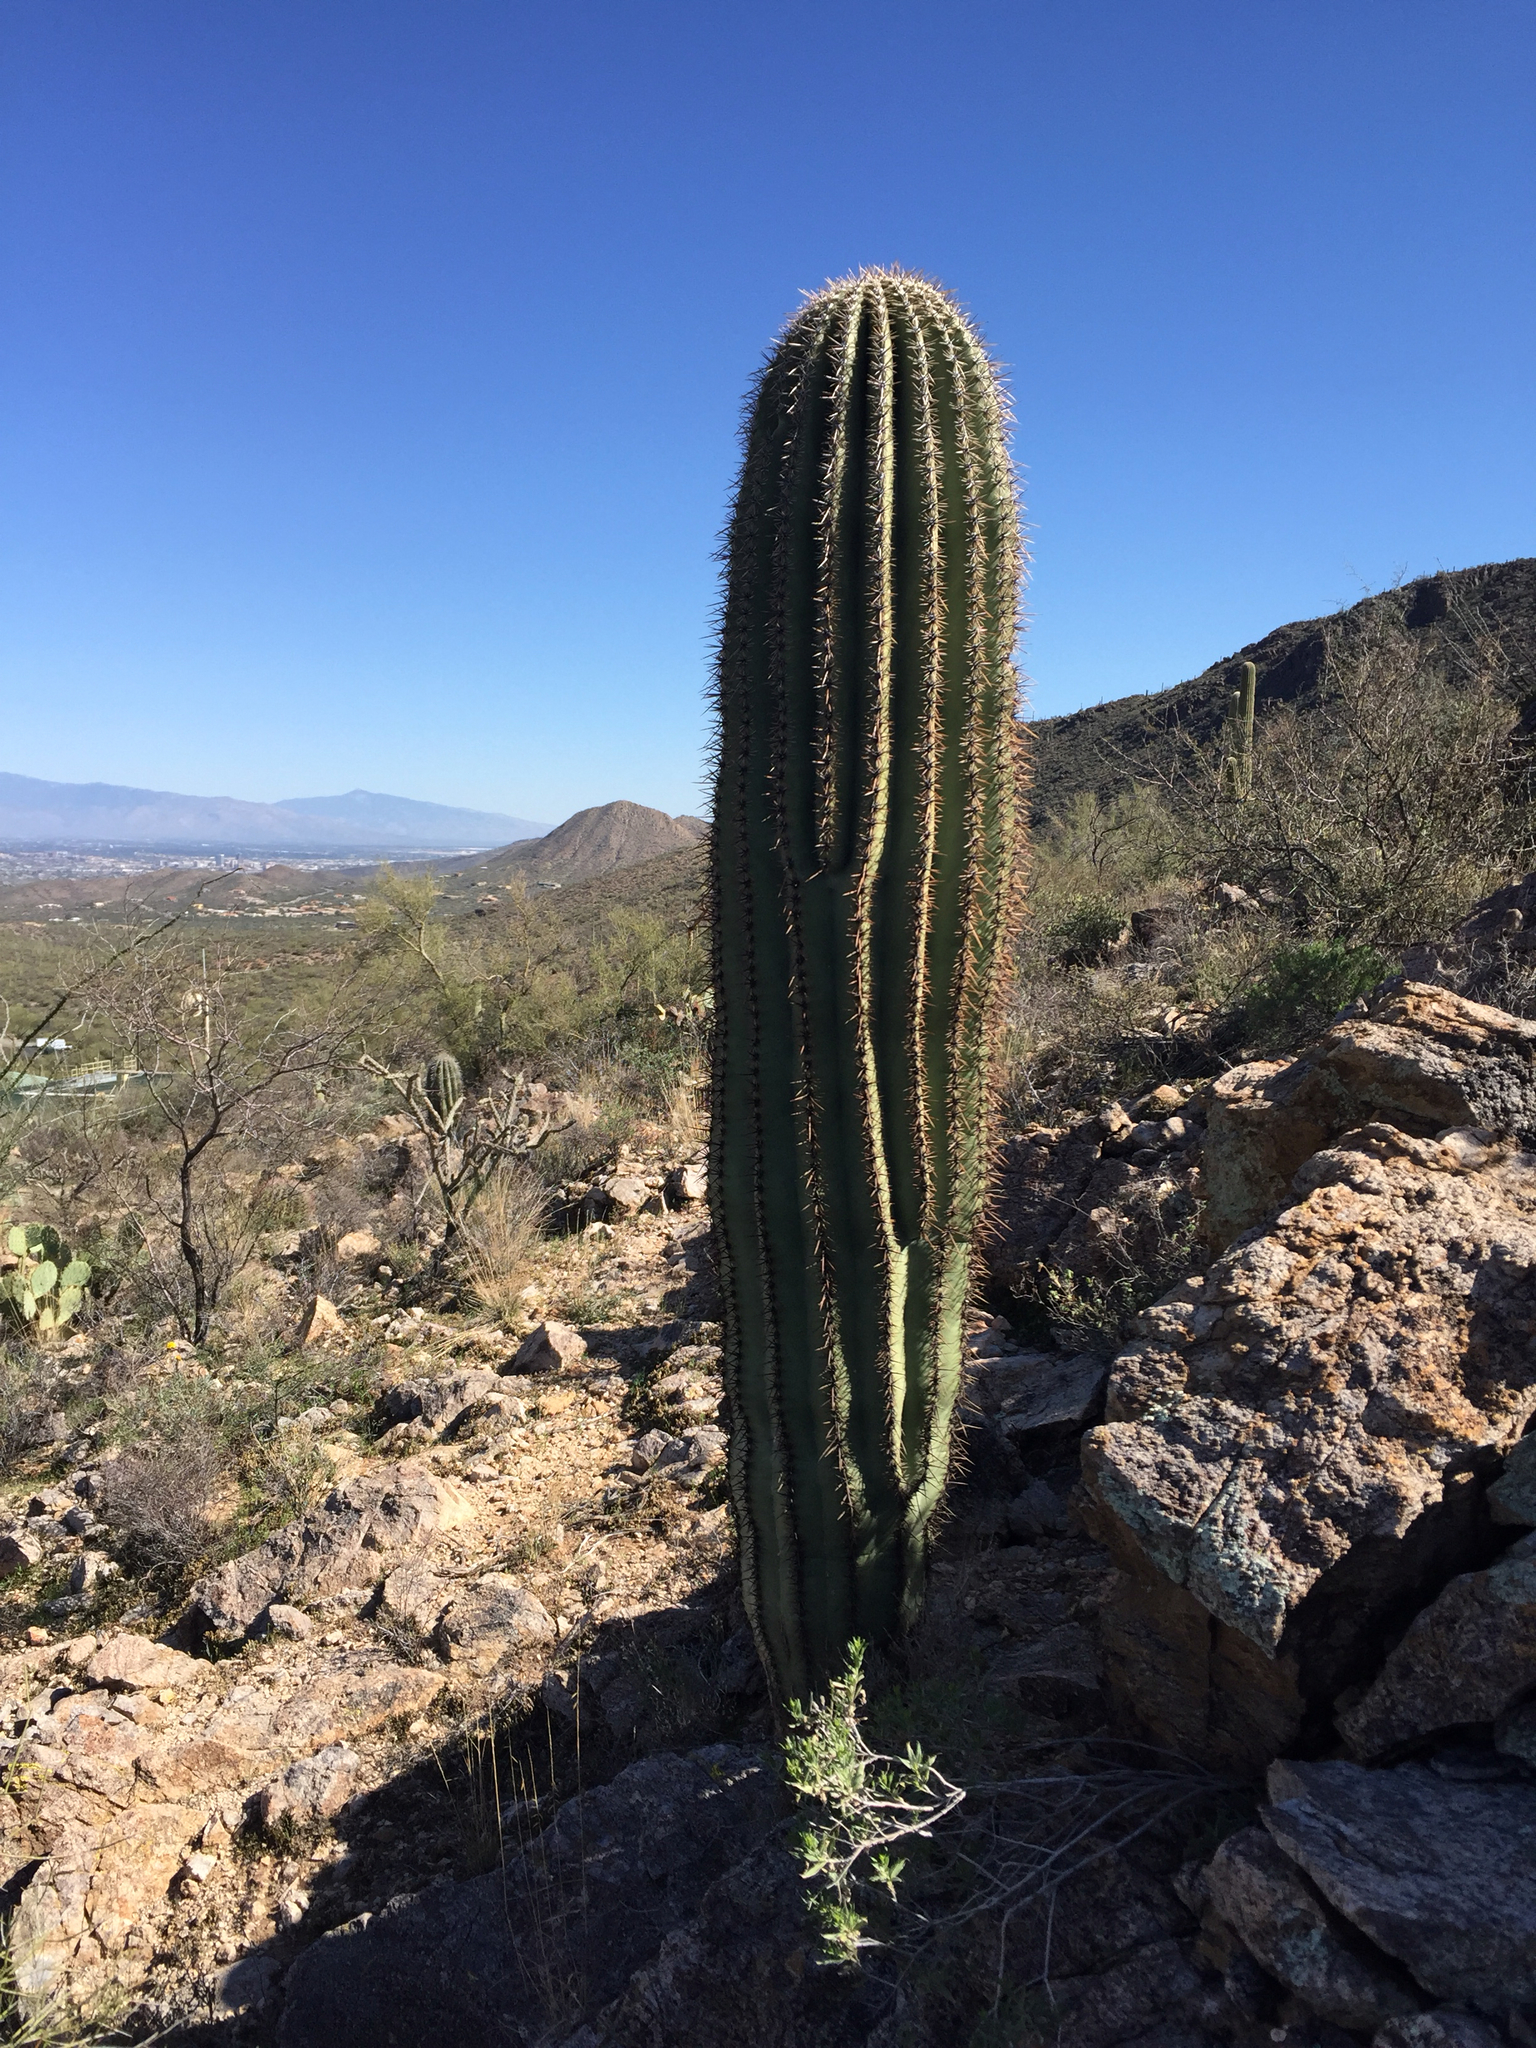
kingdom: Plantae
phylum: Tracheophyta
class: Magnoliopsida
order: Caryophyllales
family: Cactaceae
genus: Carnegiea
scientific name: Carnegiea gigantea
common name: Saguaro
